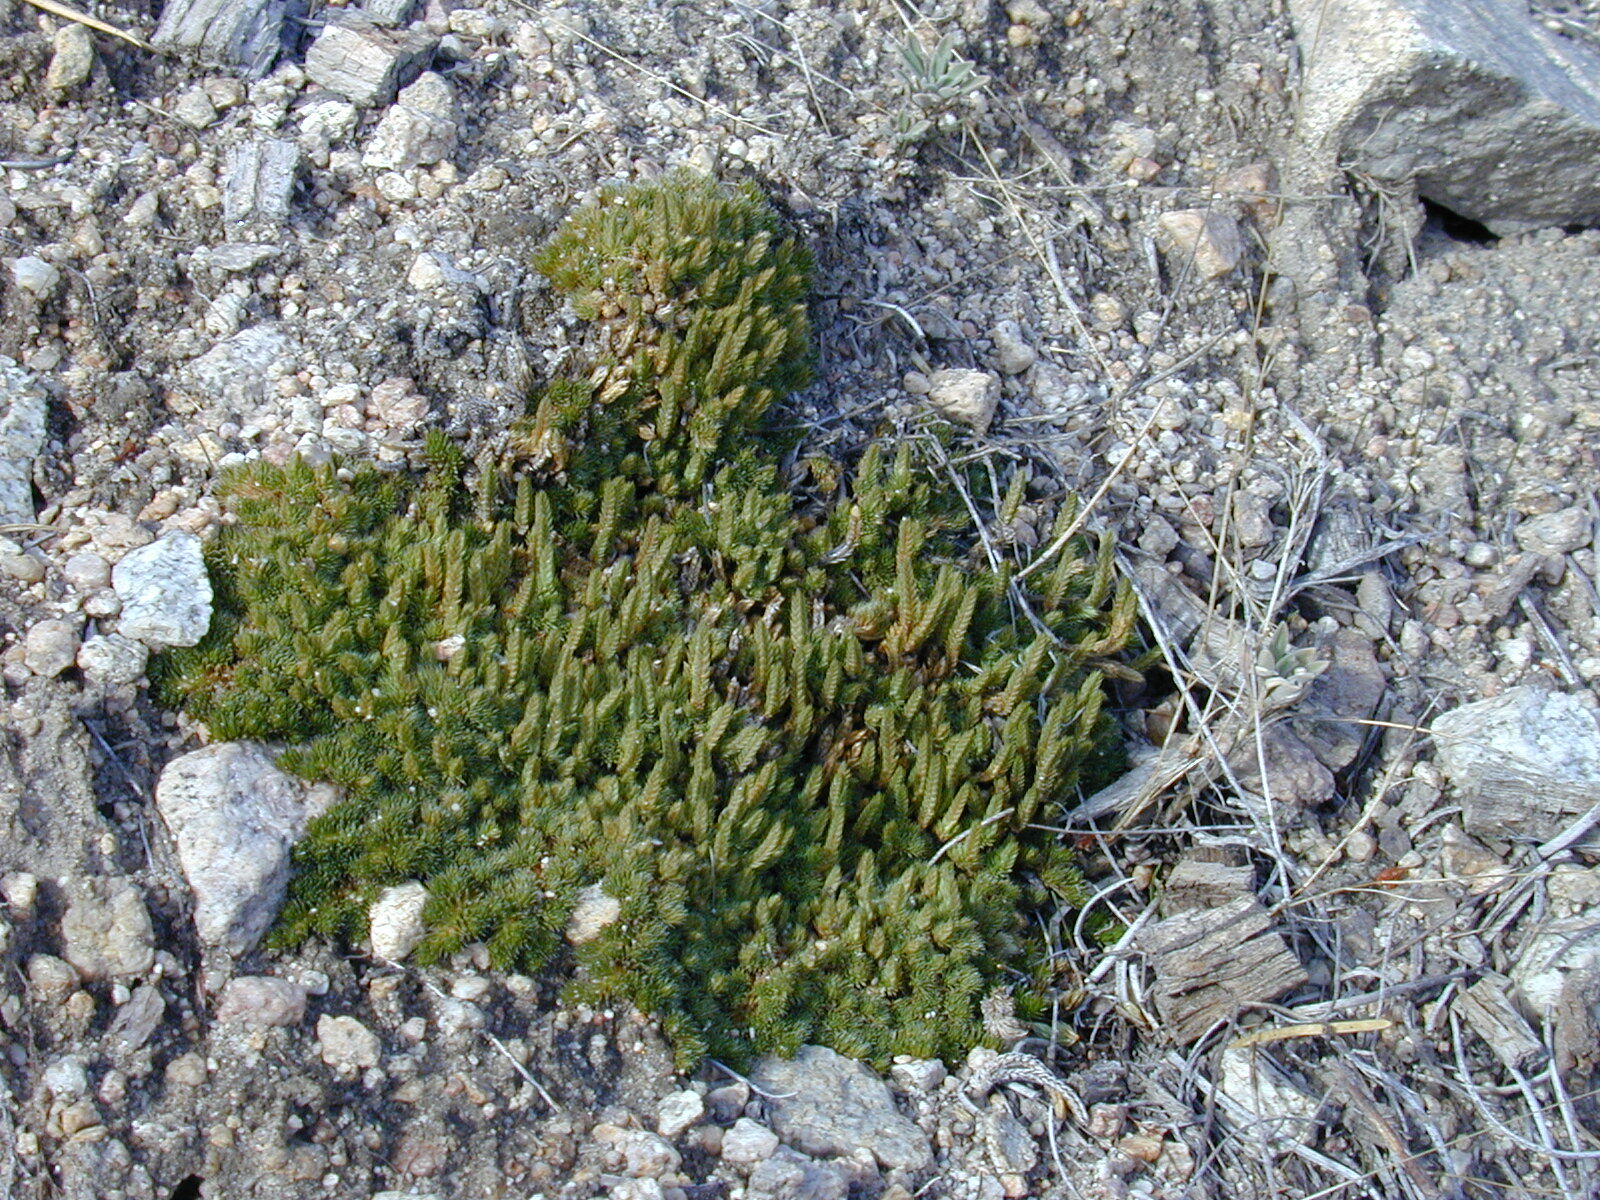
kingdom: Plantae
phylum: Tracheophyta
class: Lycopodiopsida
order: Selaginellales
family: Selaginellaceae
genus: Selaginella
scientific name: Selaginella densa
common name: Mountain spike-moss
